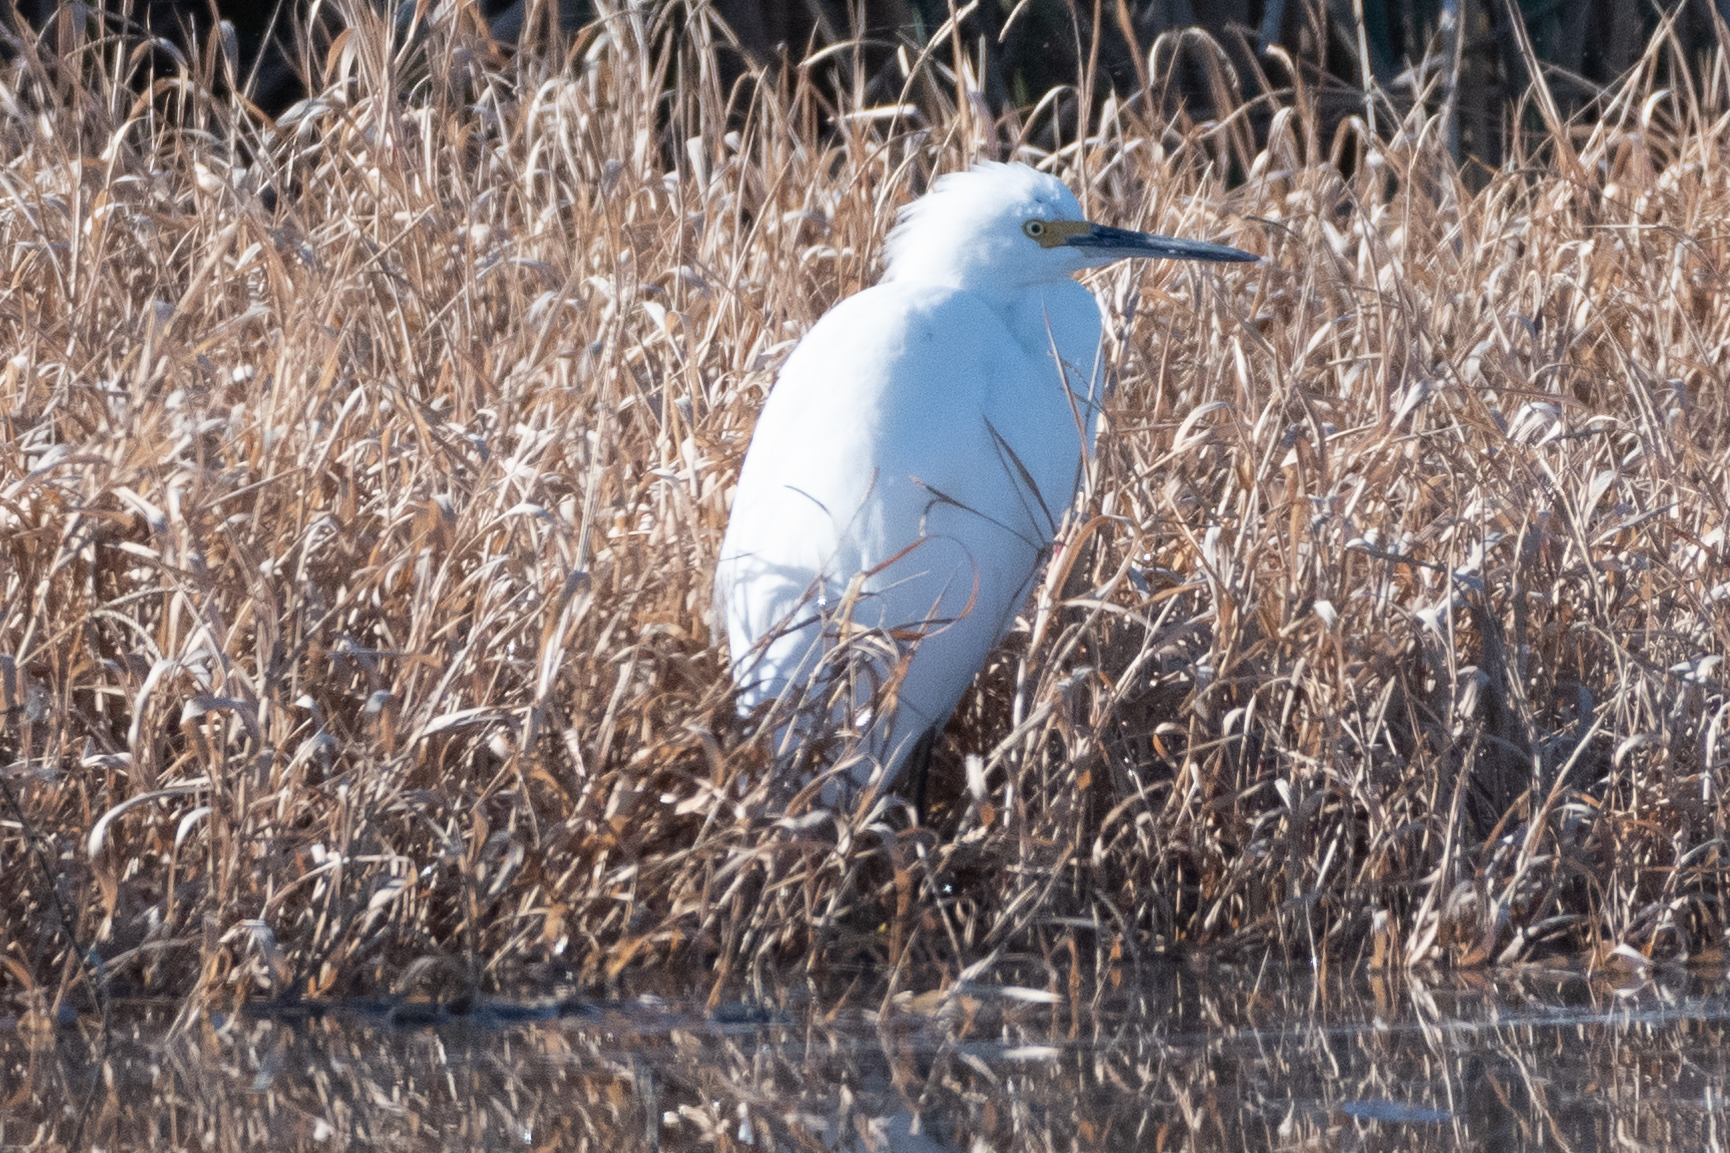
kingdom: Animalia
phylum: Chordata
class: Aves
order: Pelecaniformes
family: Ardeidae
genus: Egretta
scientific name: Egretta thula
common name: Snowy egret
